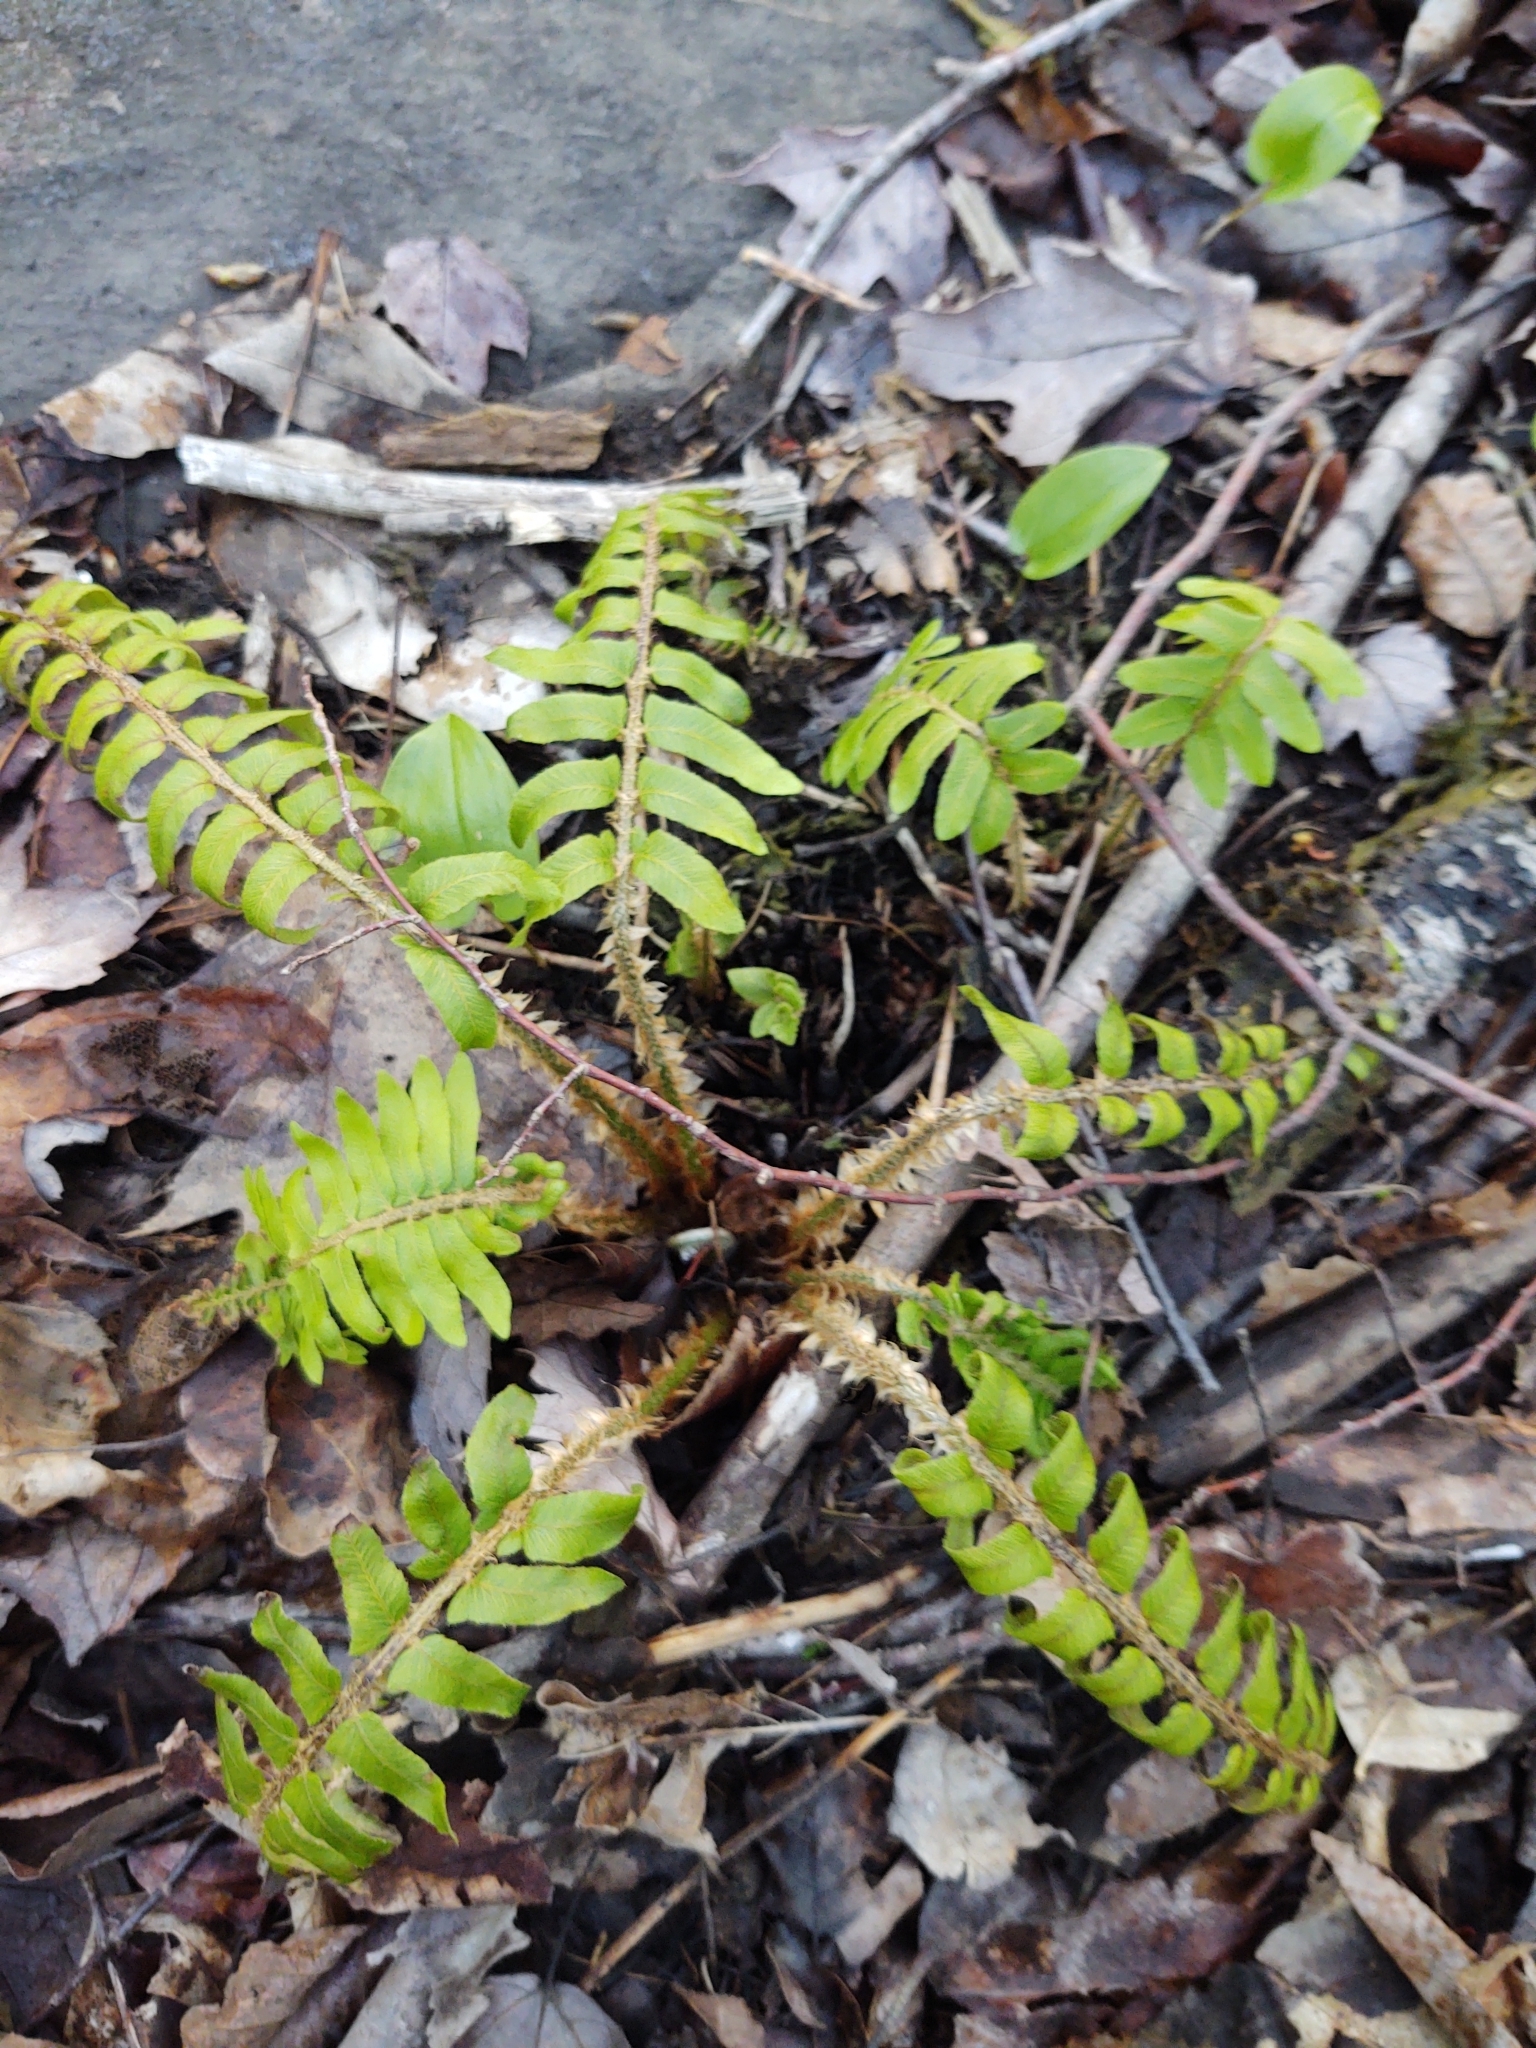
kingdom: Plantae
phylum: Tracheophyta
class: Polypodiopsida
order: Polypodiales
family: Dryopteridaceae
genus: Polystichum
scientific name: Polystichum acrostichoides
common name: Christmas fern
